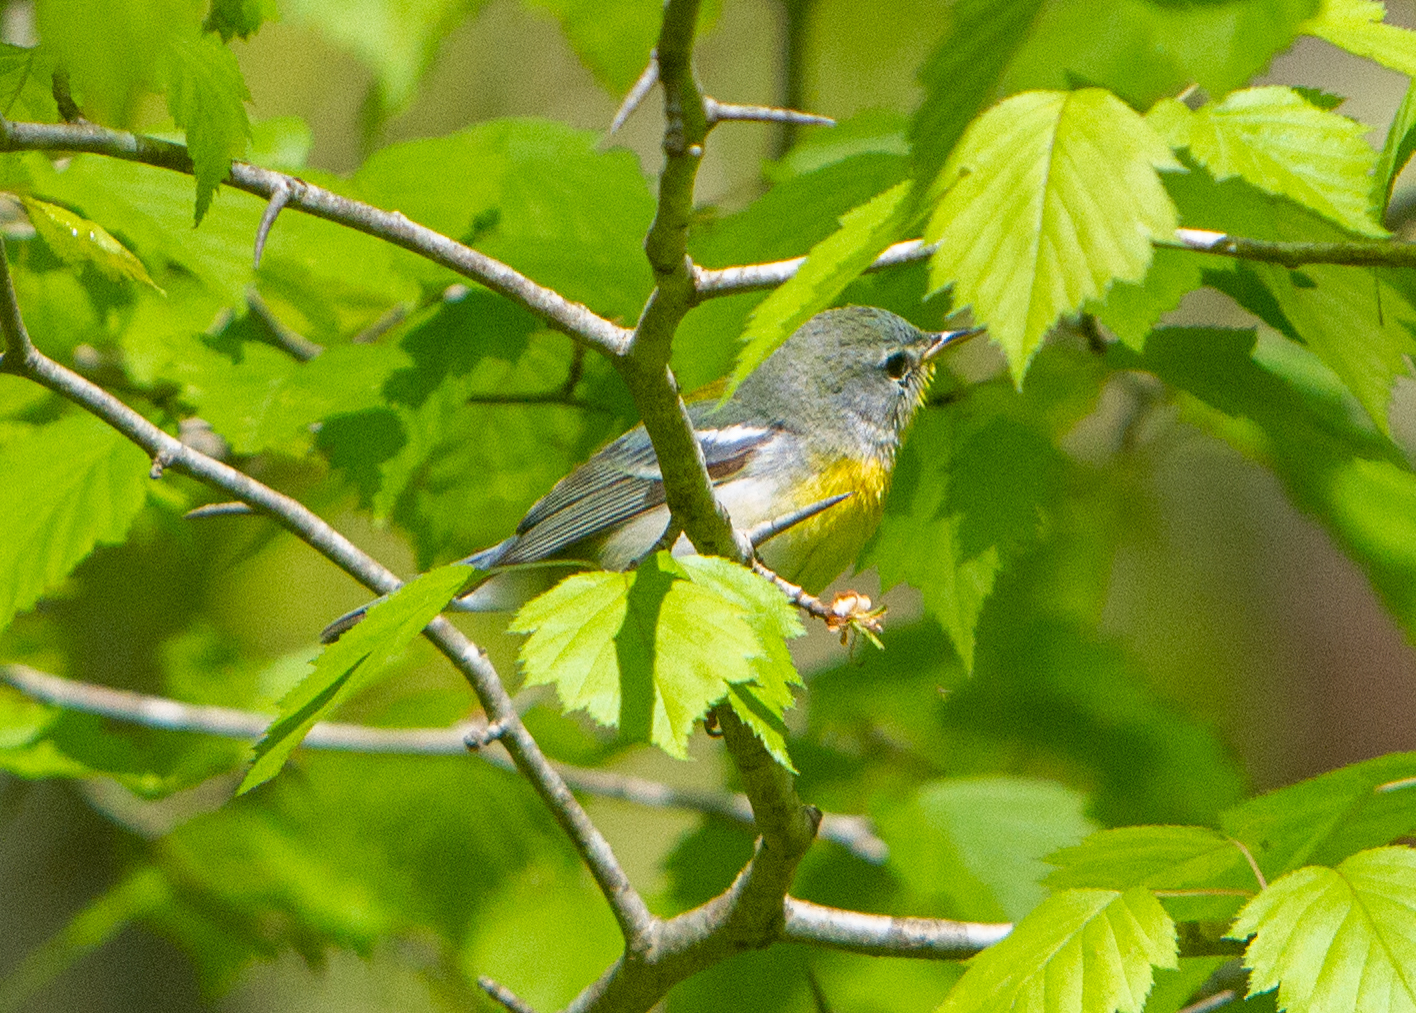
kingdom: Animalia
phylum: Chordata
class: Aves
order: Passeriformes
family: Parulidae
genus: Setophaga
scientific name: Setophaga americana
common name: Northern parula
